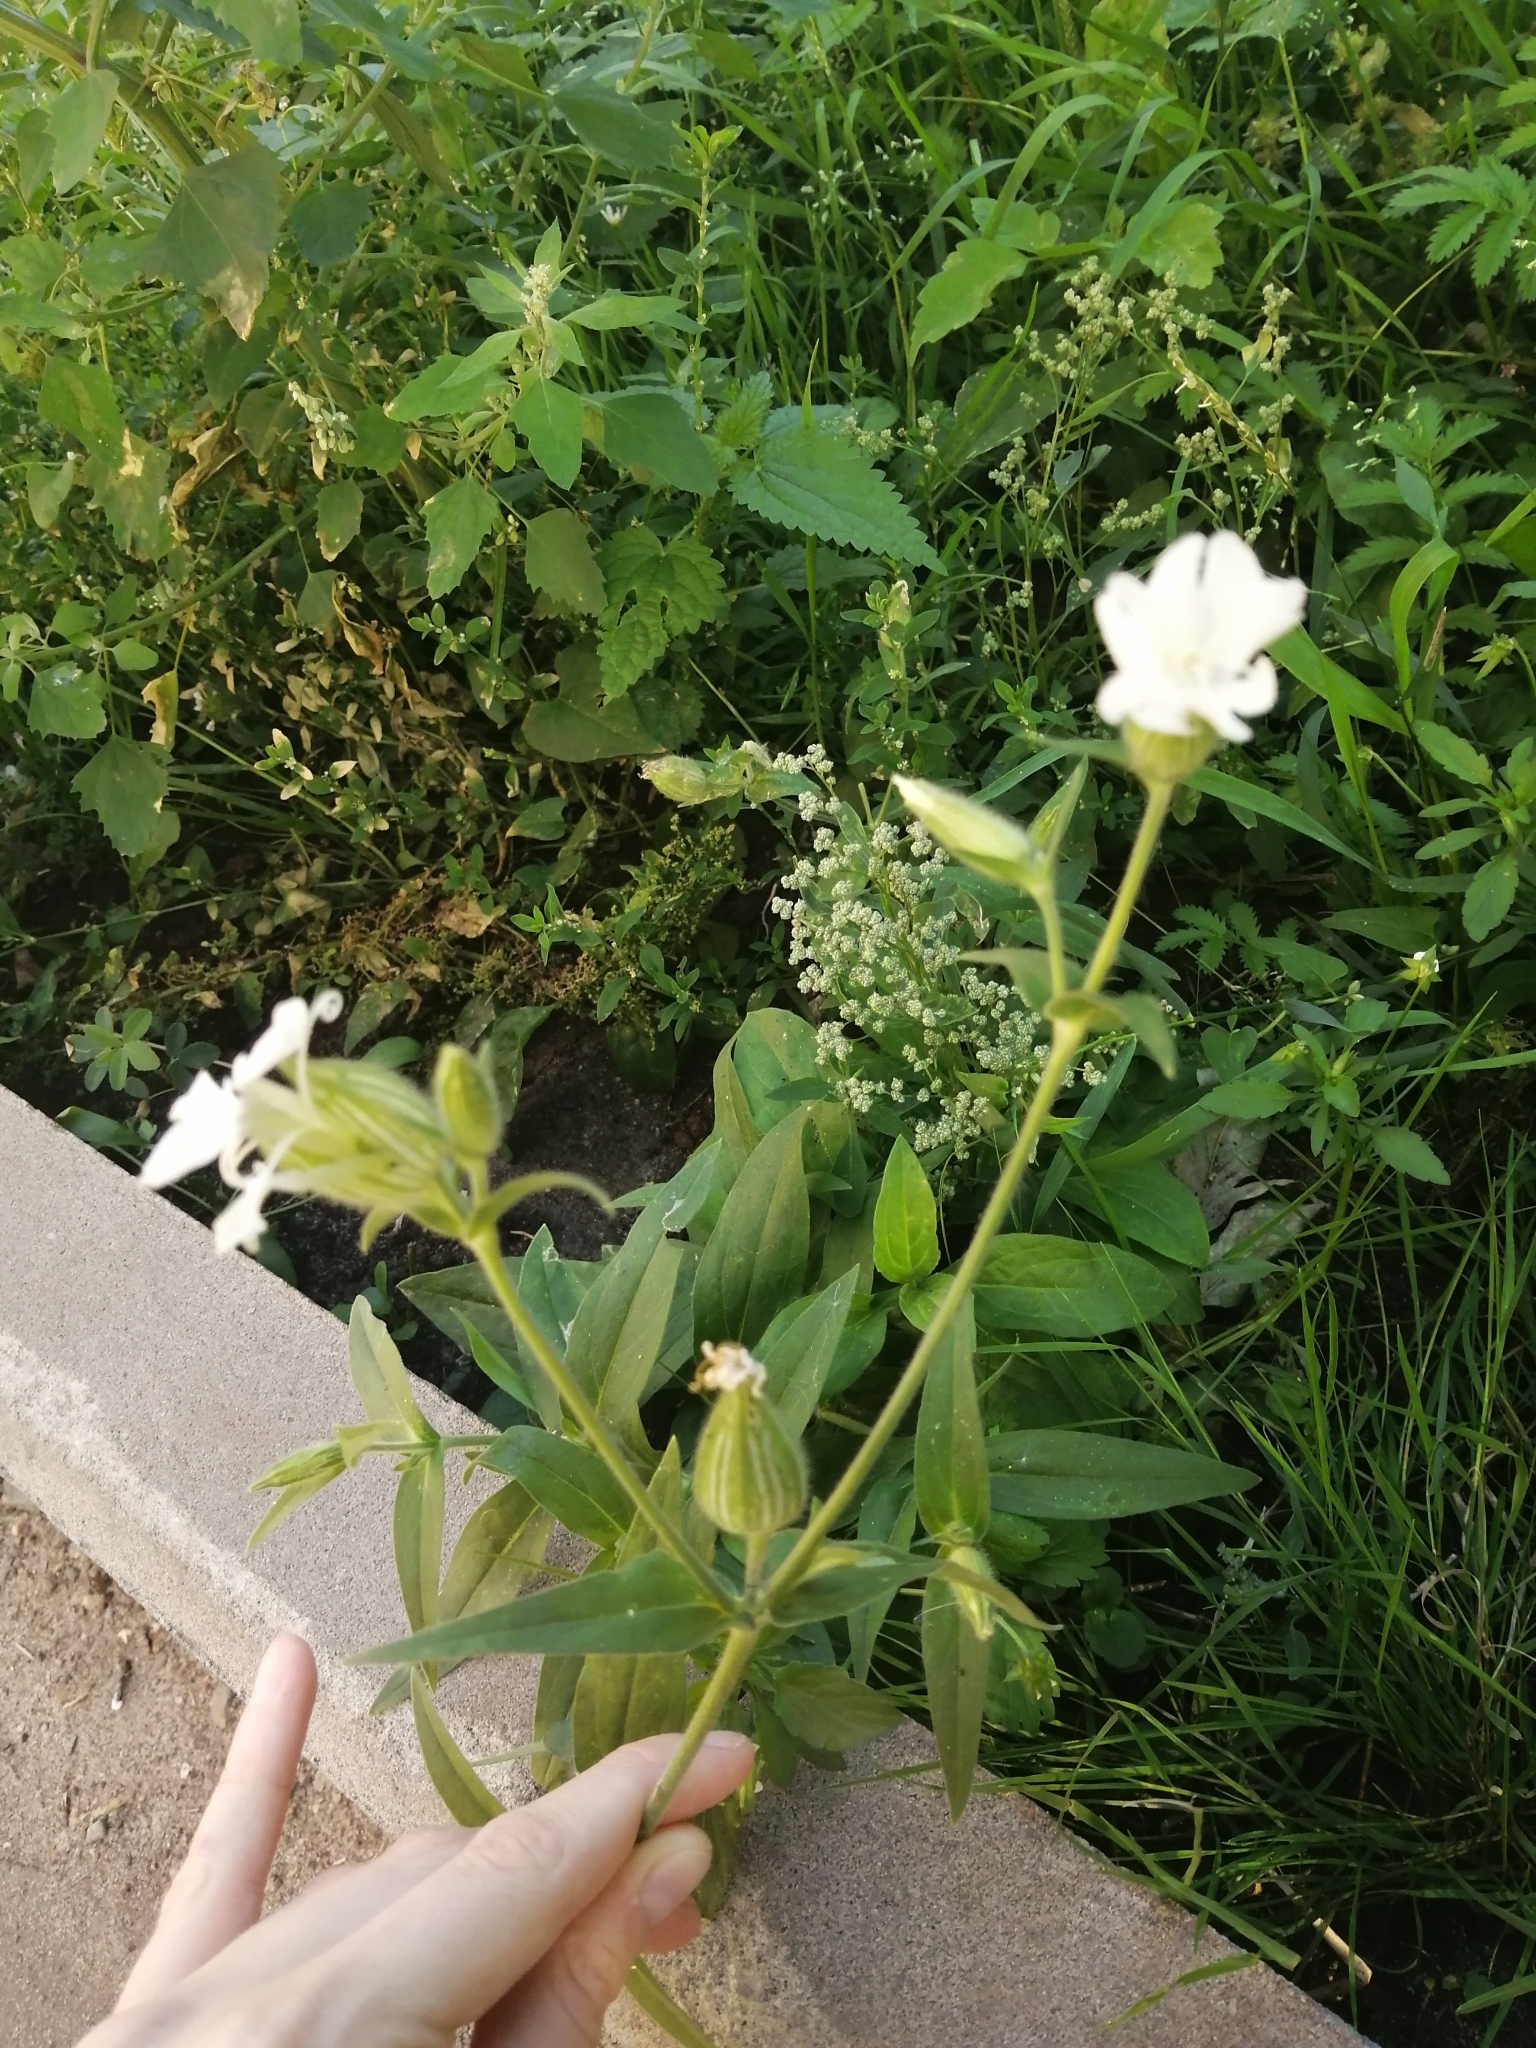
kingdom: Plantae
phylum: Tracheophyta
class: Magnoliopsida
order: Caryophyllales
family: Caryophyllaceae
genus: Silene
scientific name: Silene latifolia
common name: White campion
